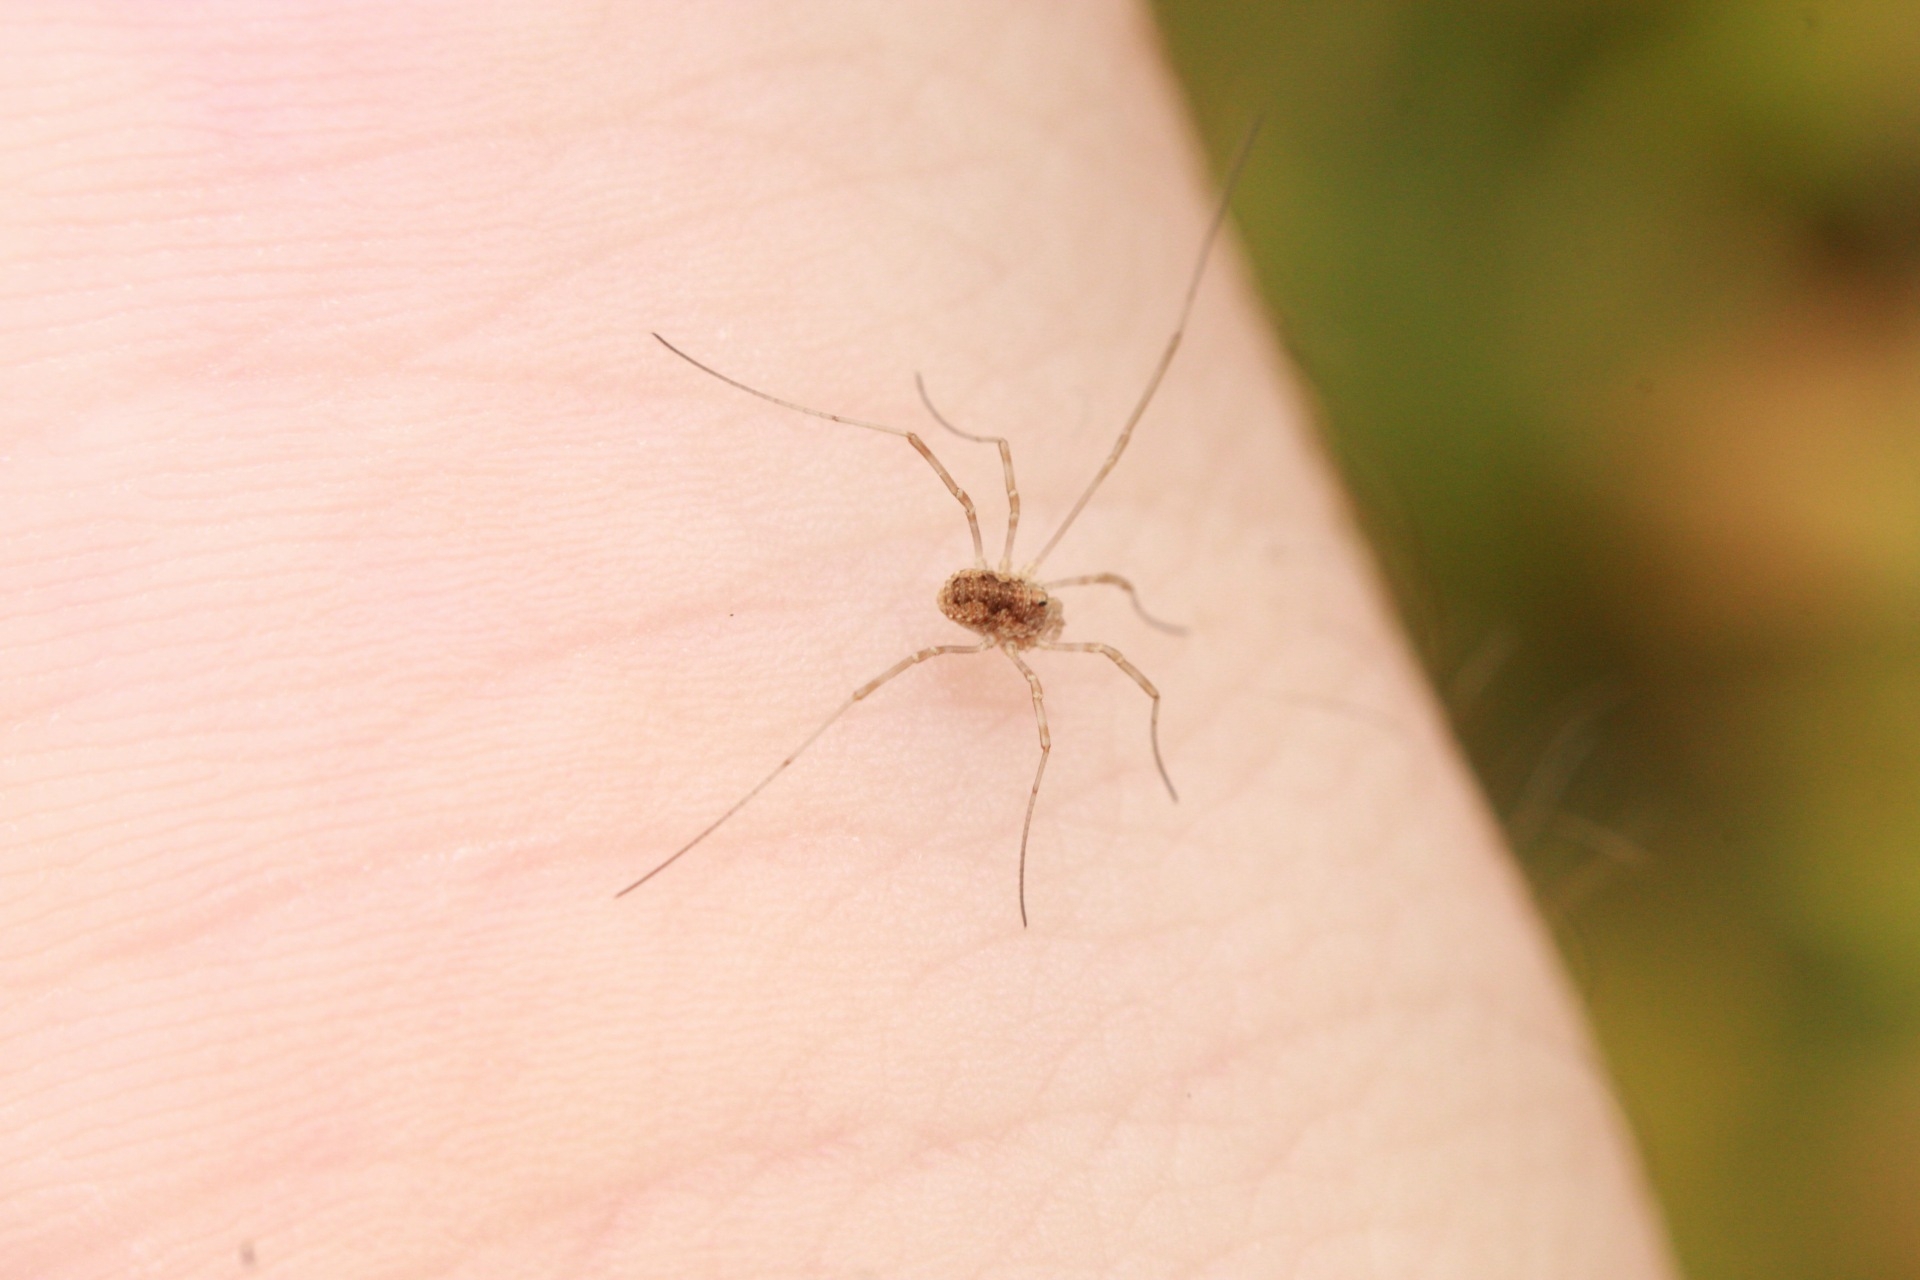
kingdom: Animalia
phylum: Arthropoda
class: Arachnida
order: Opiliones
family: Phalangiidae
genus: Phalangium
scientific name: Phalangium opilio
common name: Daddy longleg
